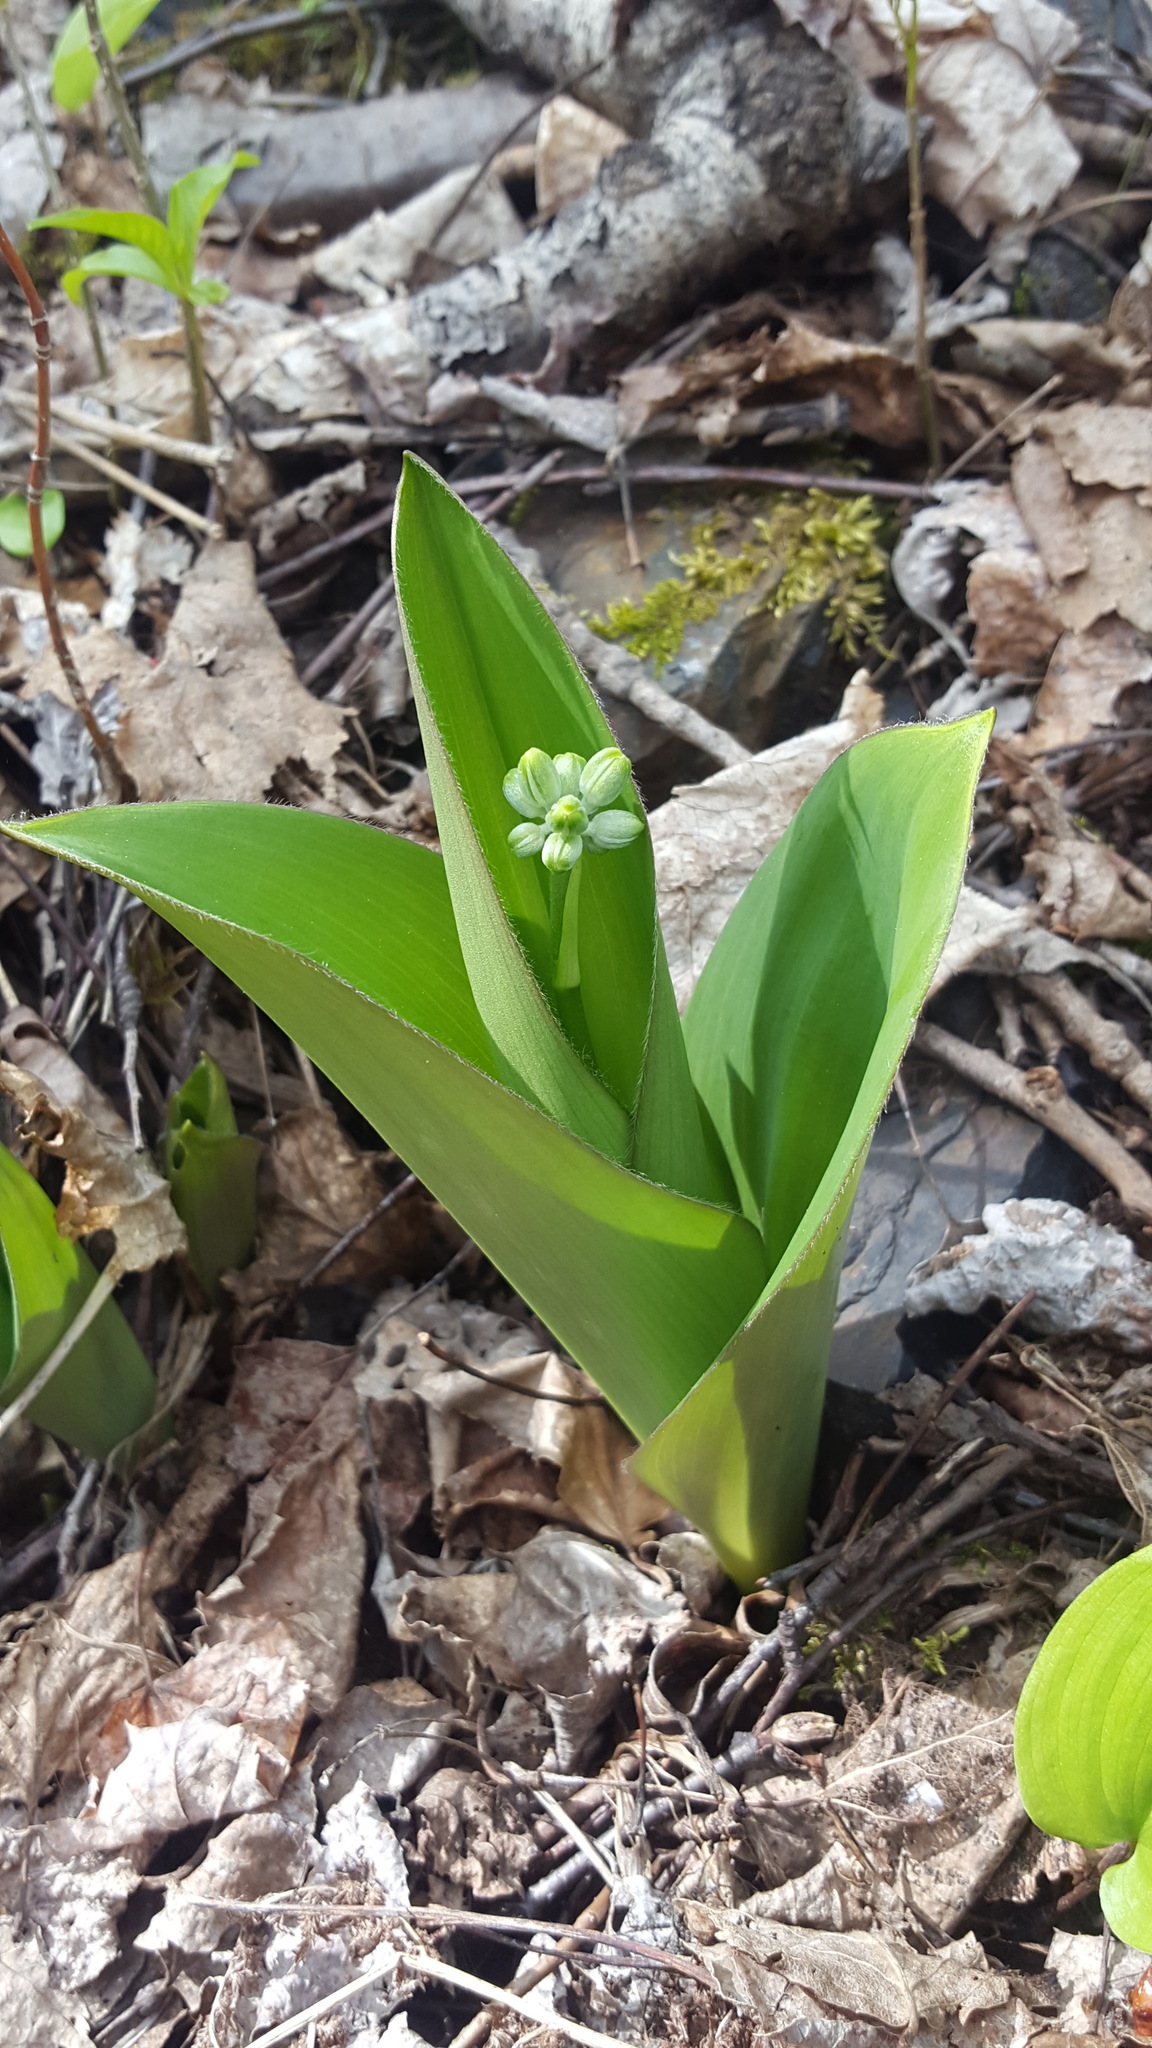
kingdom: Plantae
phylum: Tracheophyta
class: Liliopsida
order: Liliales
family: Liliaceae
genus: Clintonia
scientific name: Clintonia borealis
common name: Yellow clintonia
